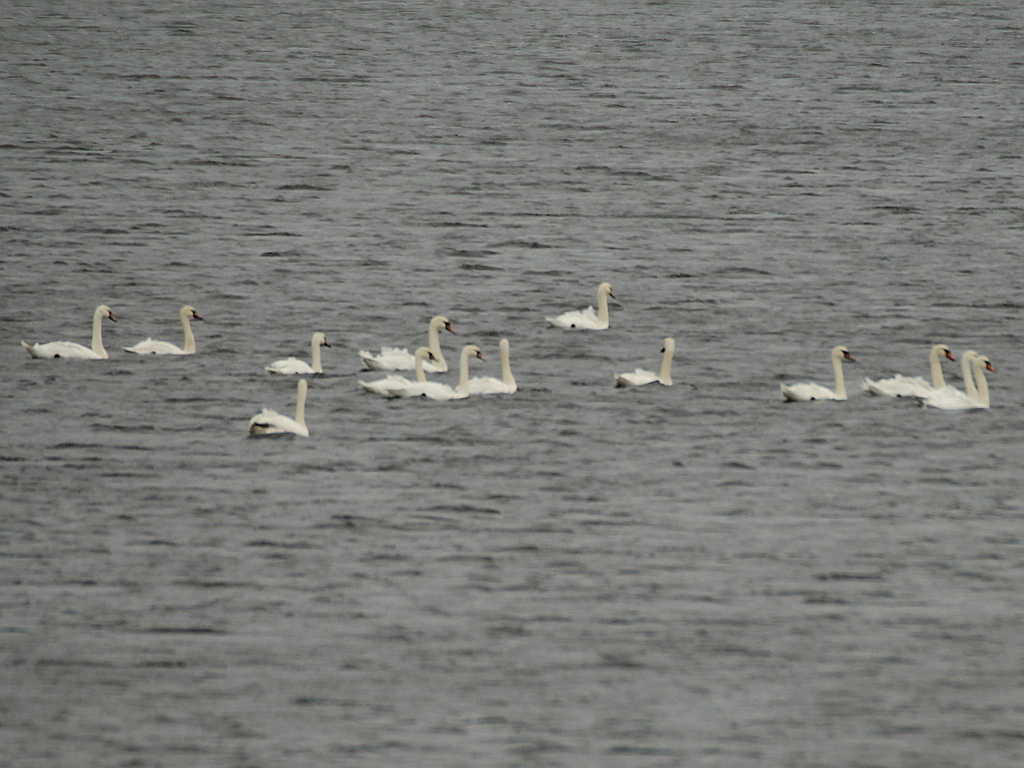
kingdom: Animalia
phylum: Chordata
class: Aves
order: Anseriformes
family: Anatidae
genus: Cygnus
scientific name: Cygnus olor
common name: Mute swan
